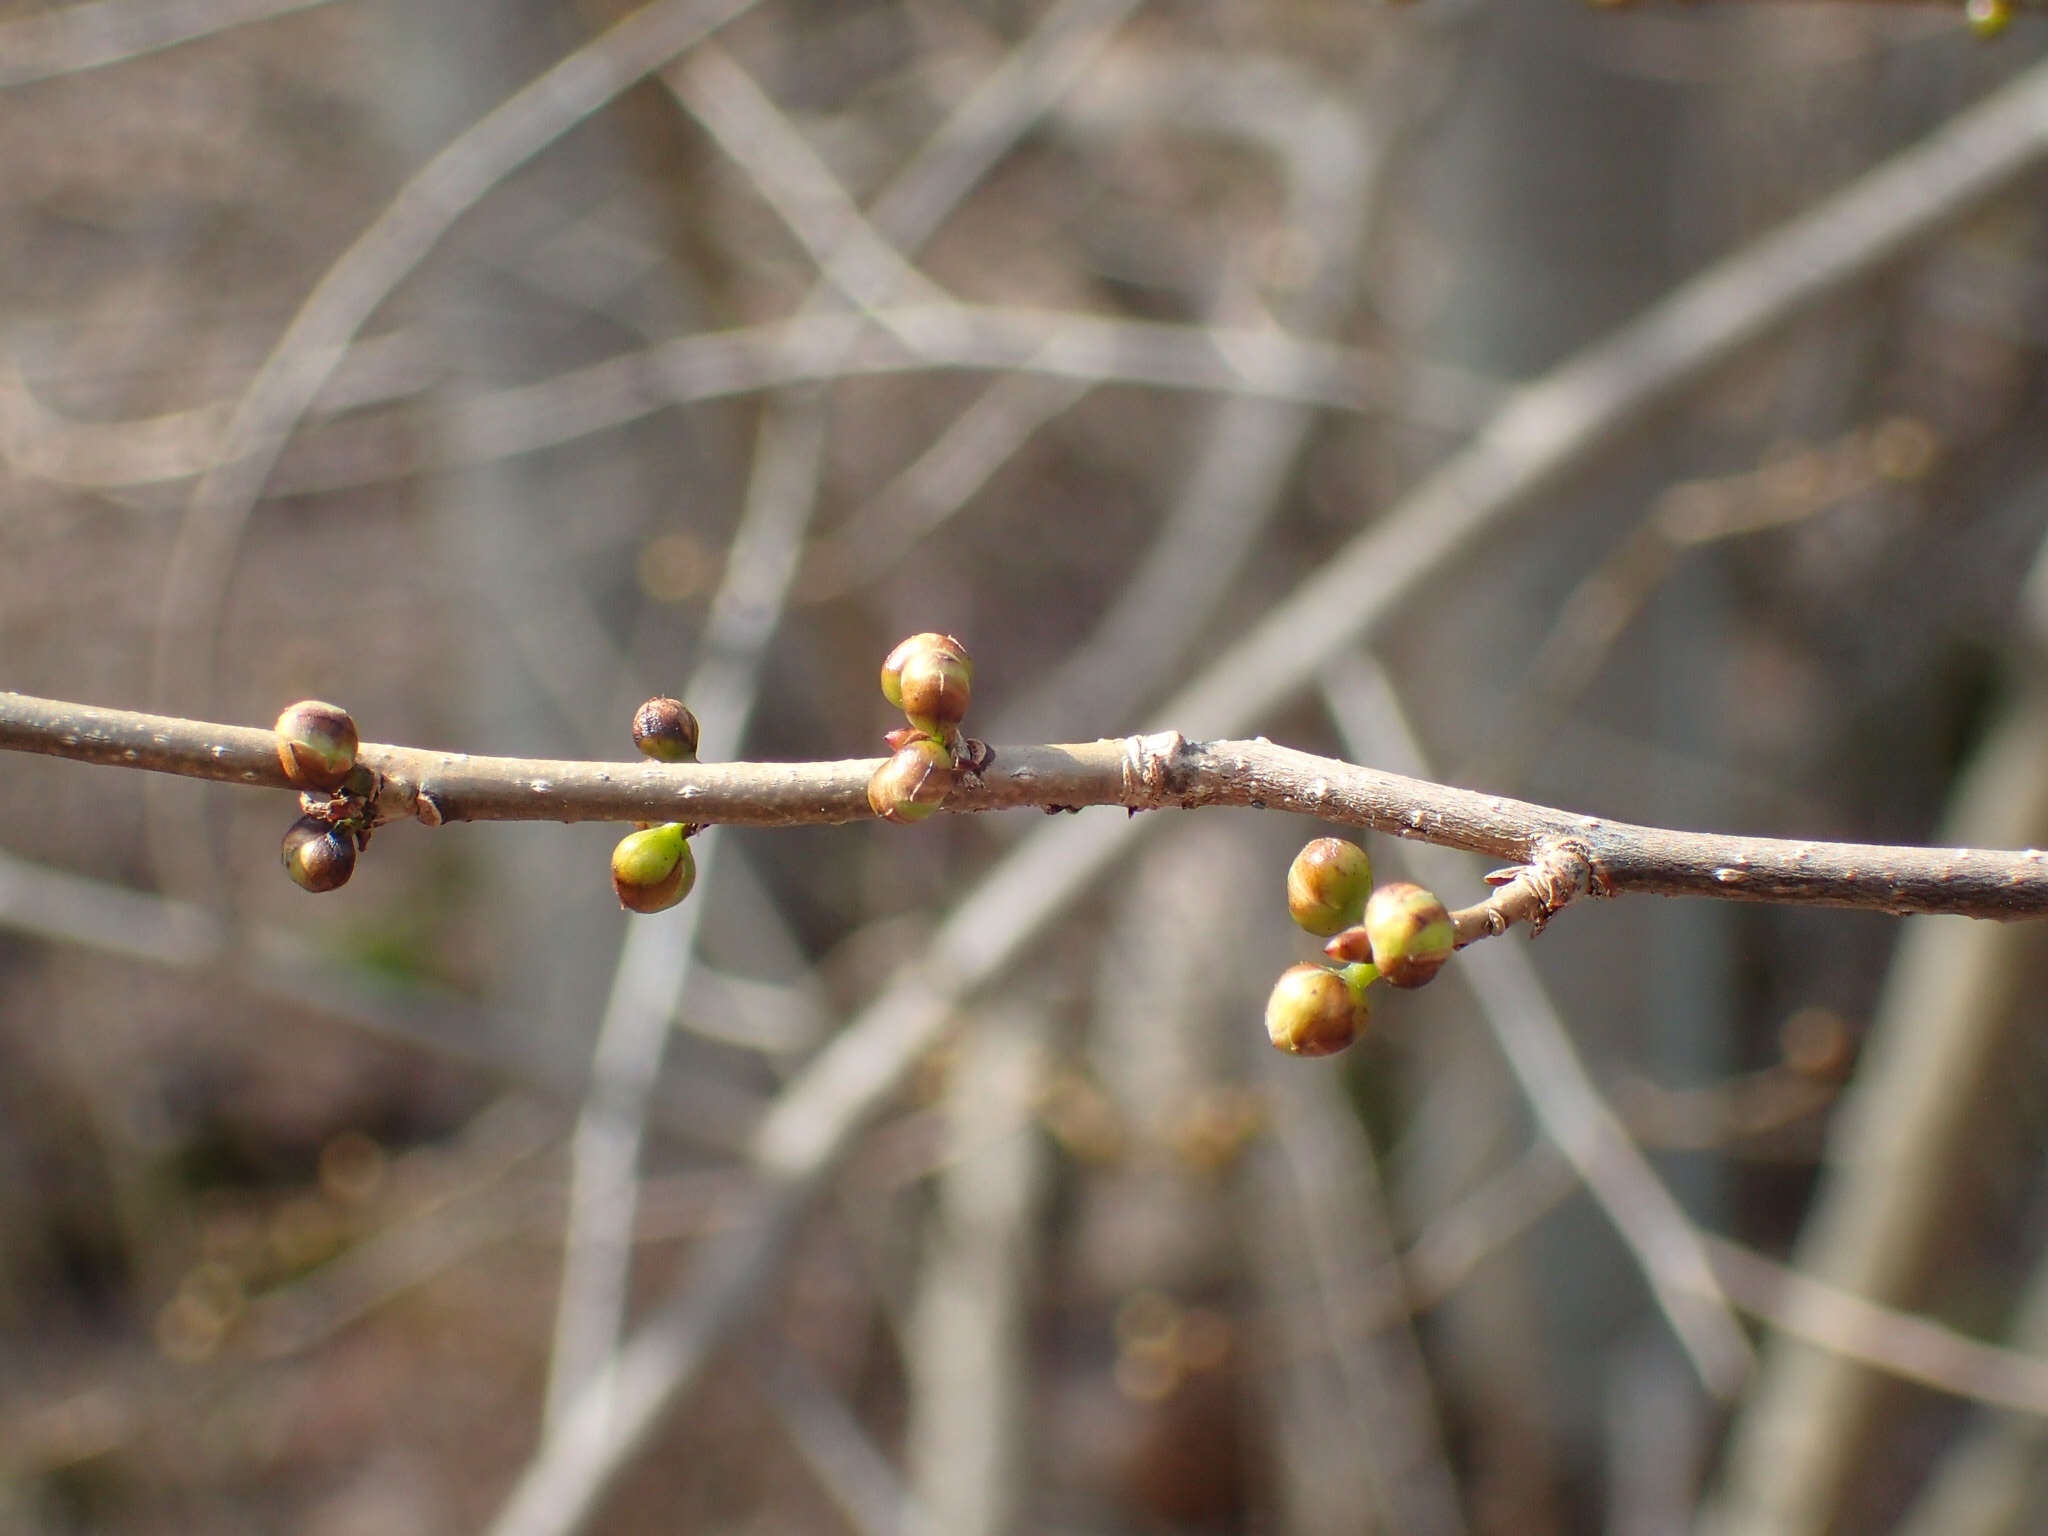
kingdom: Plantae
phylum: Tracheophyta
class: Magnoliopsida
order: Laurales
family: Lauraceae
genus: Lindera
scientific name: Lindera benzoin
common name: Spicebush
